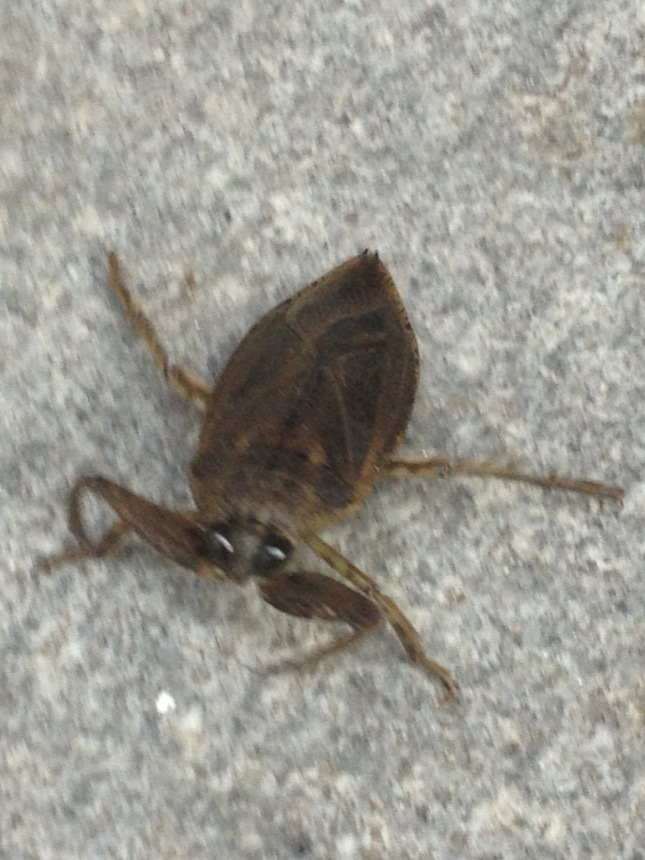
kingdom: Animalia
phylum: Arthropoda
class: Insecta
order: Hemiptera
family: Belostomatidae
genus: Lethocerus
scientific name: Lethocerus uhleri
